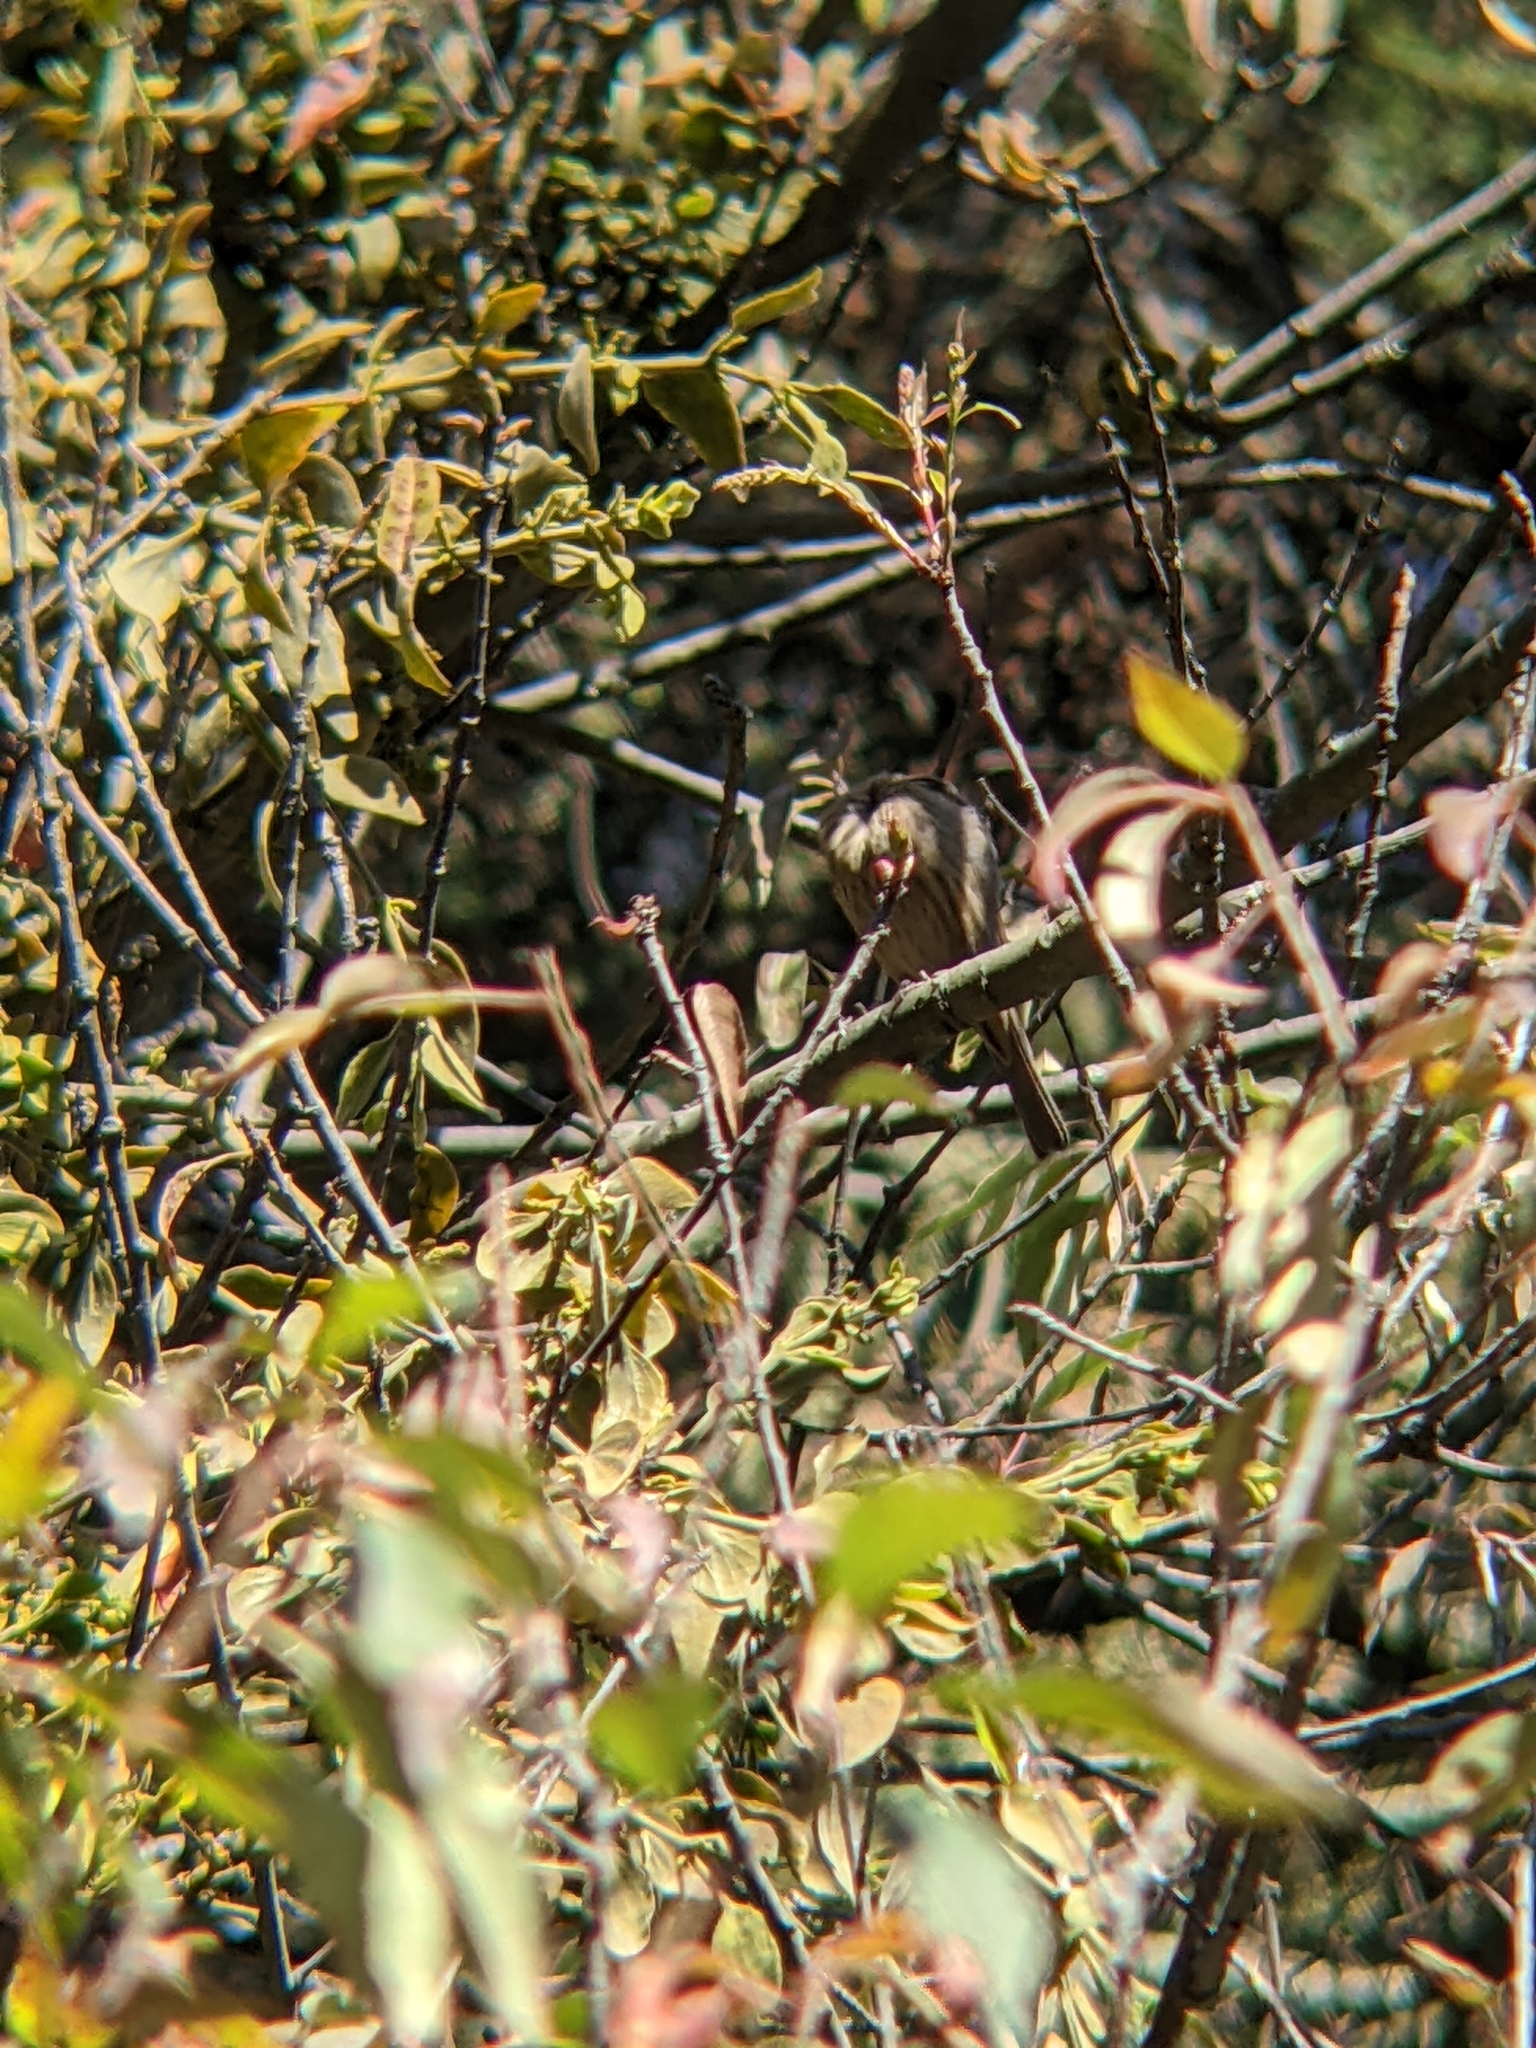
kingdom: Animalia
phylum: Chordata
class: Aves
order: Passeriformes
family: Fringillidae
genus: Haemorhous
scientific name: Haemorhous mexicanus
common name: House finch
